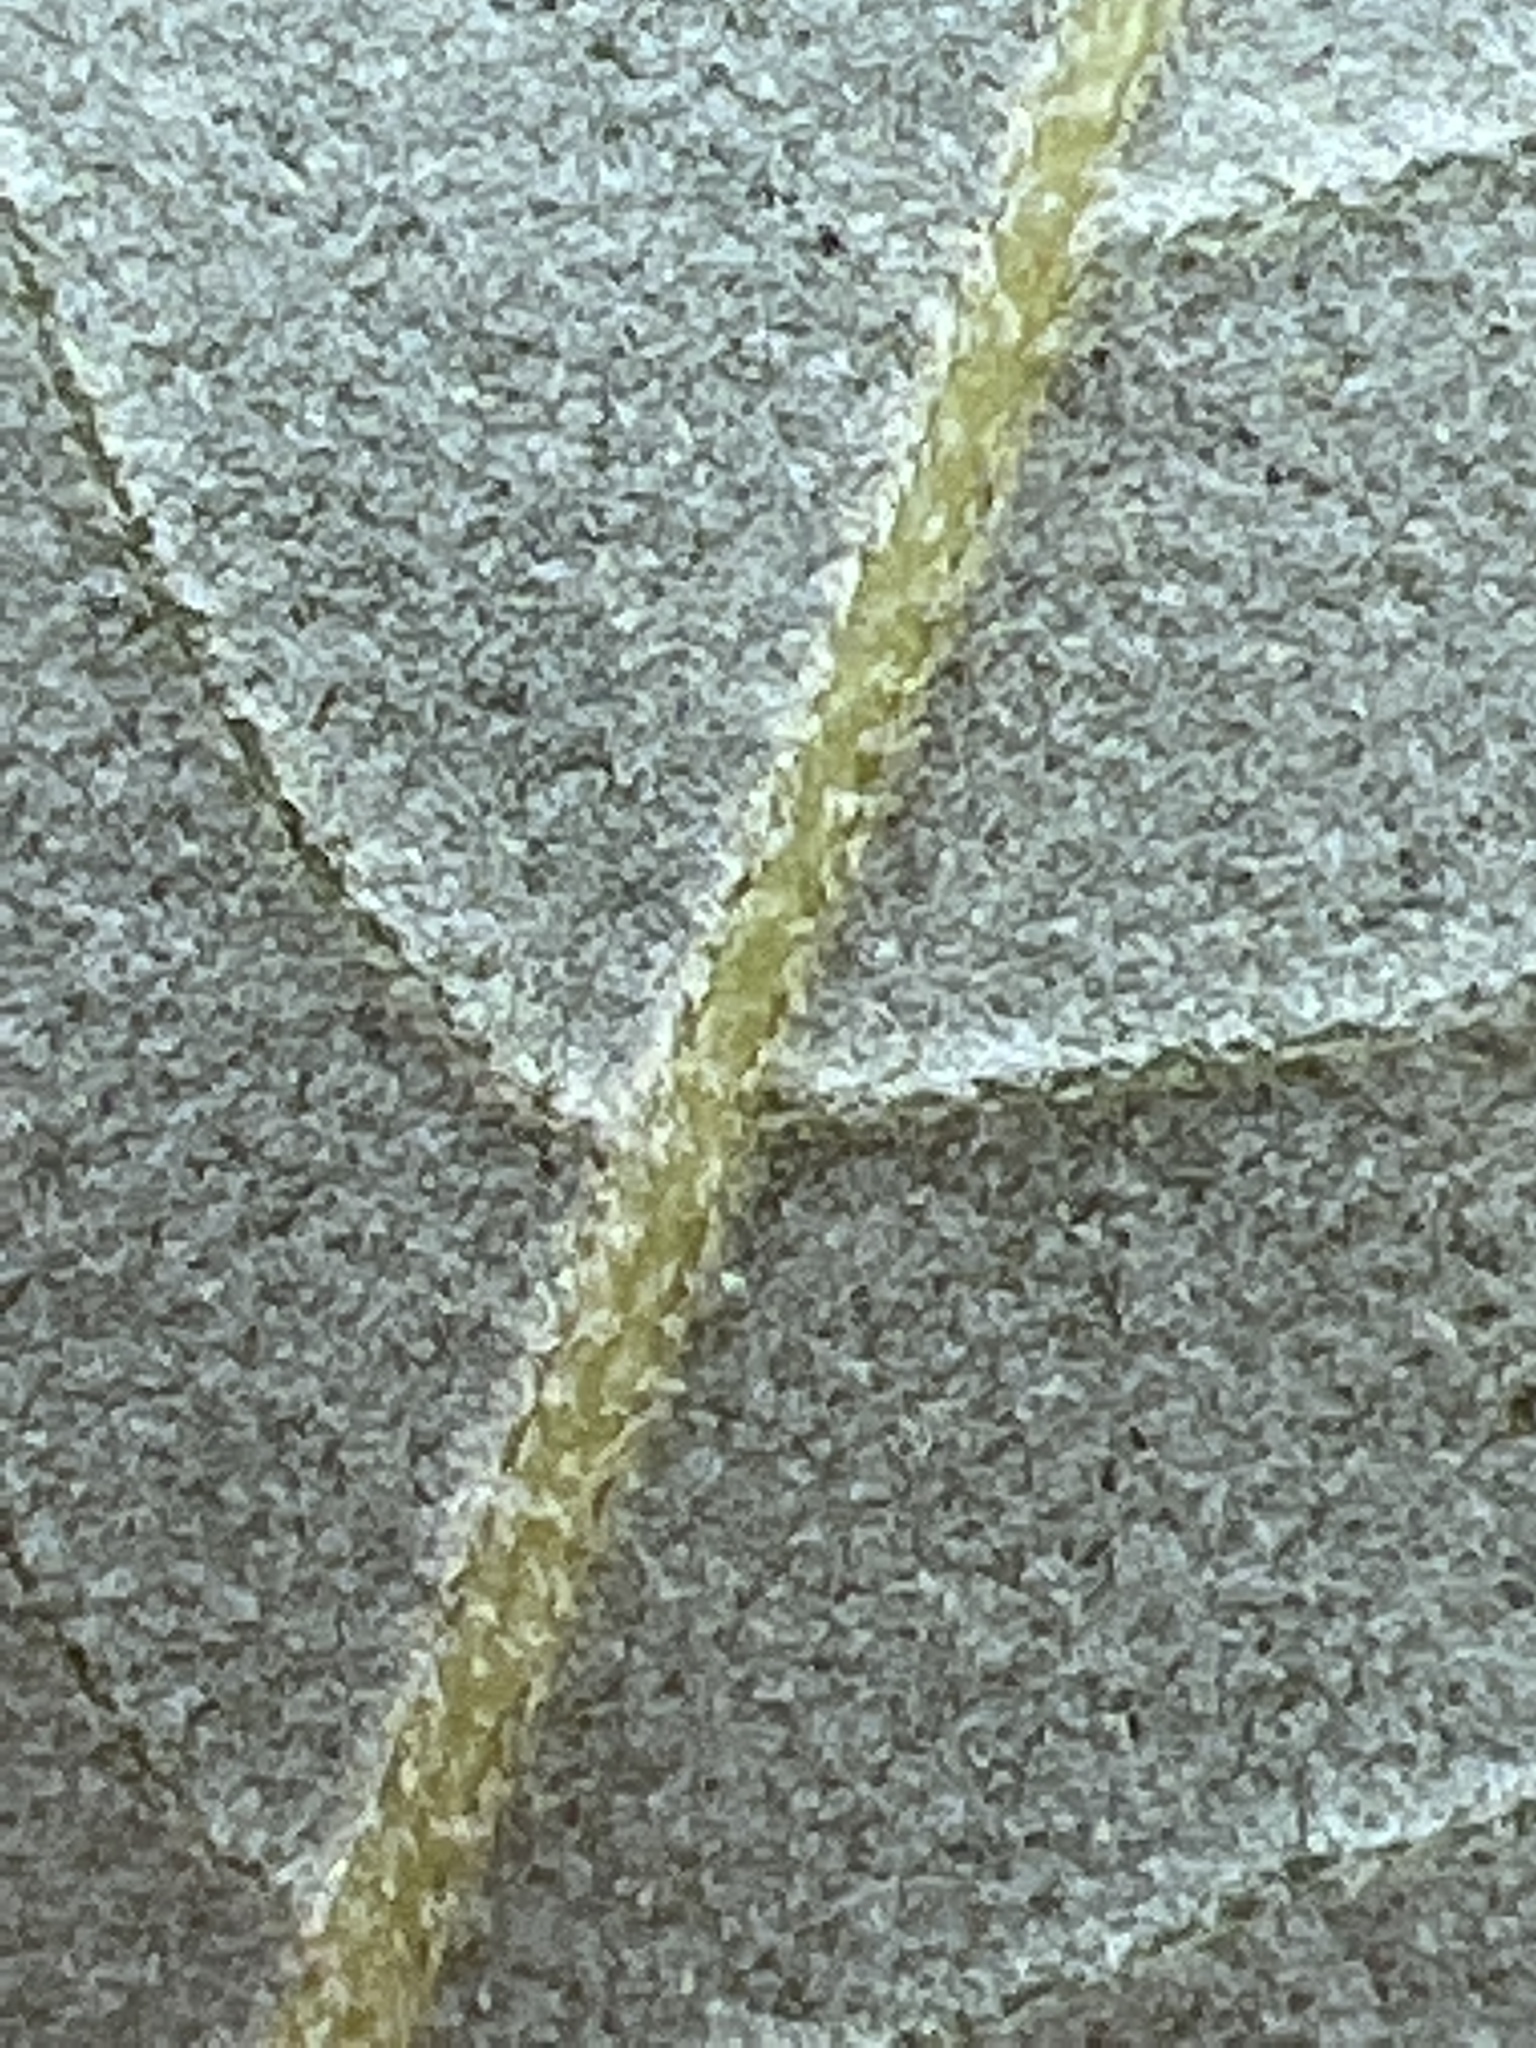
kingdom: Plantae
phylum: Tracheophyta
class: Magnoliopsida
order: Fagales
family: Fagaceae
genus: Quercus
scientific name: Quercus ilex
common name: Evergreen oak
